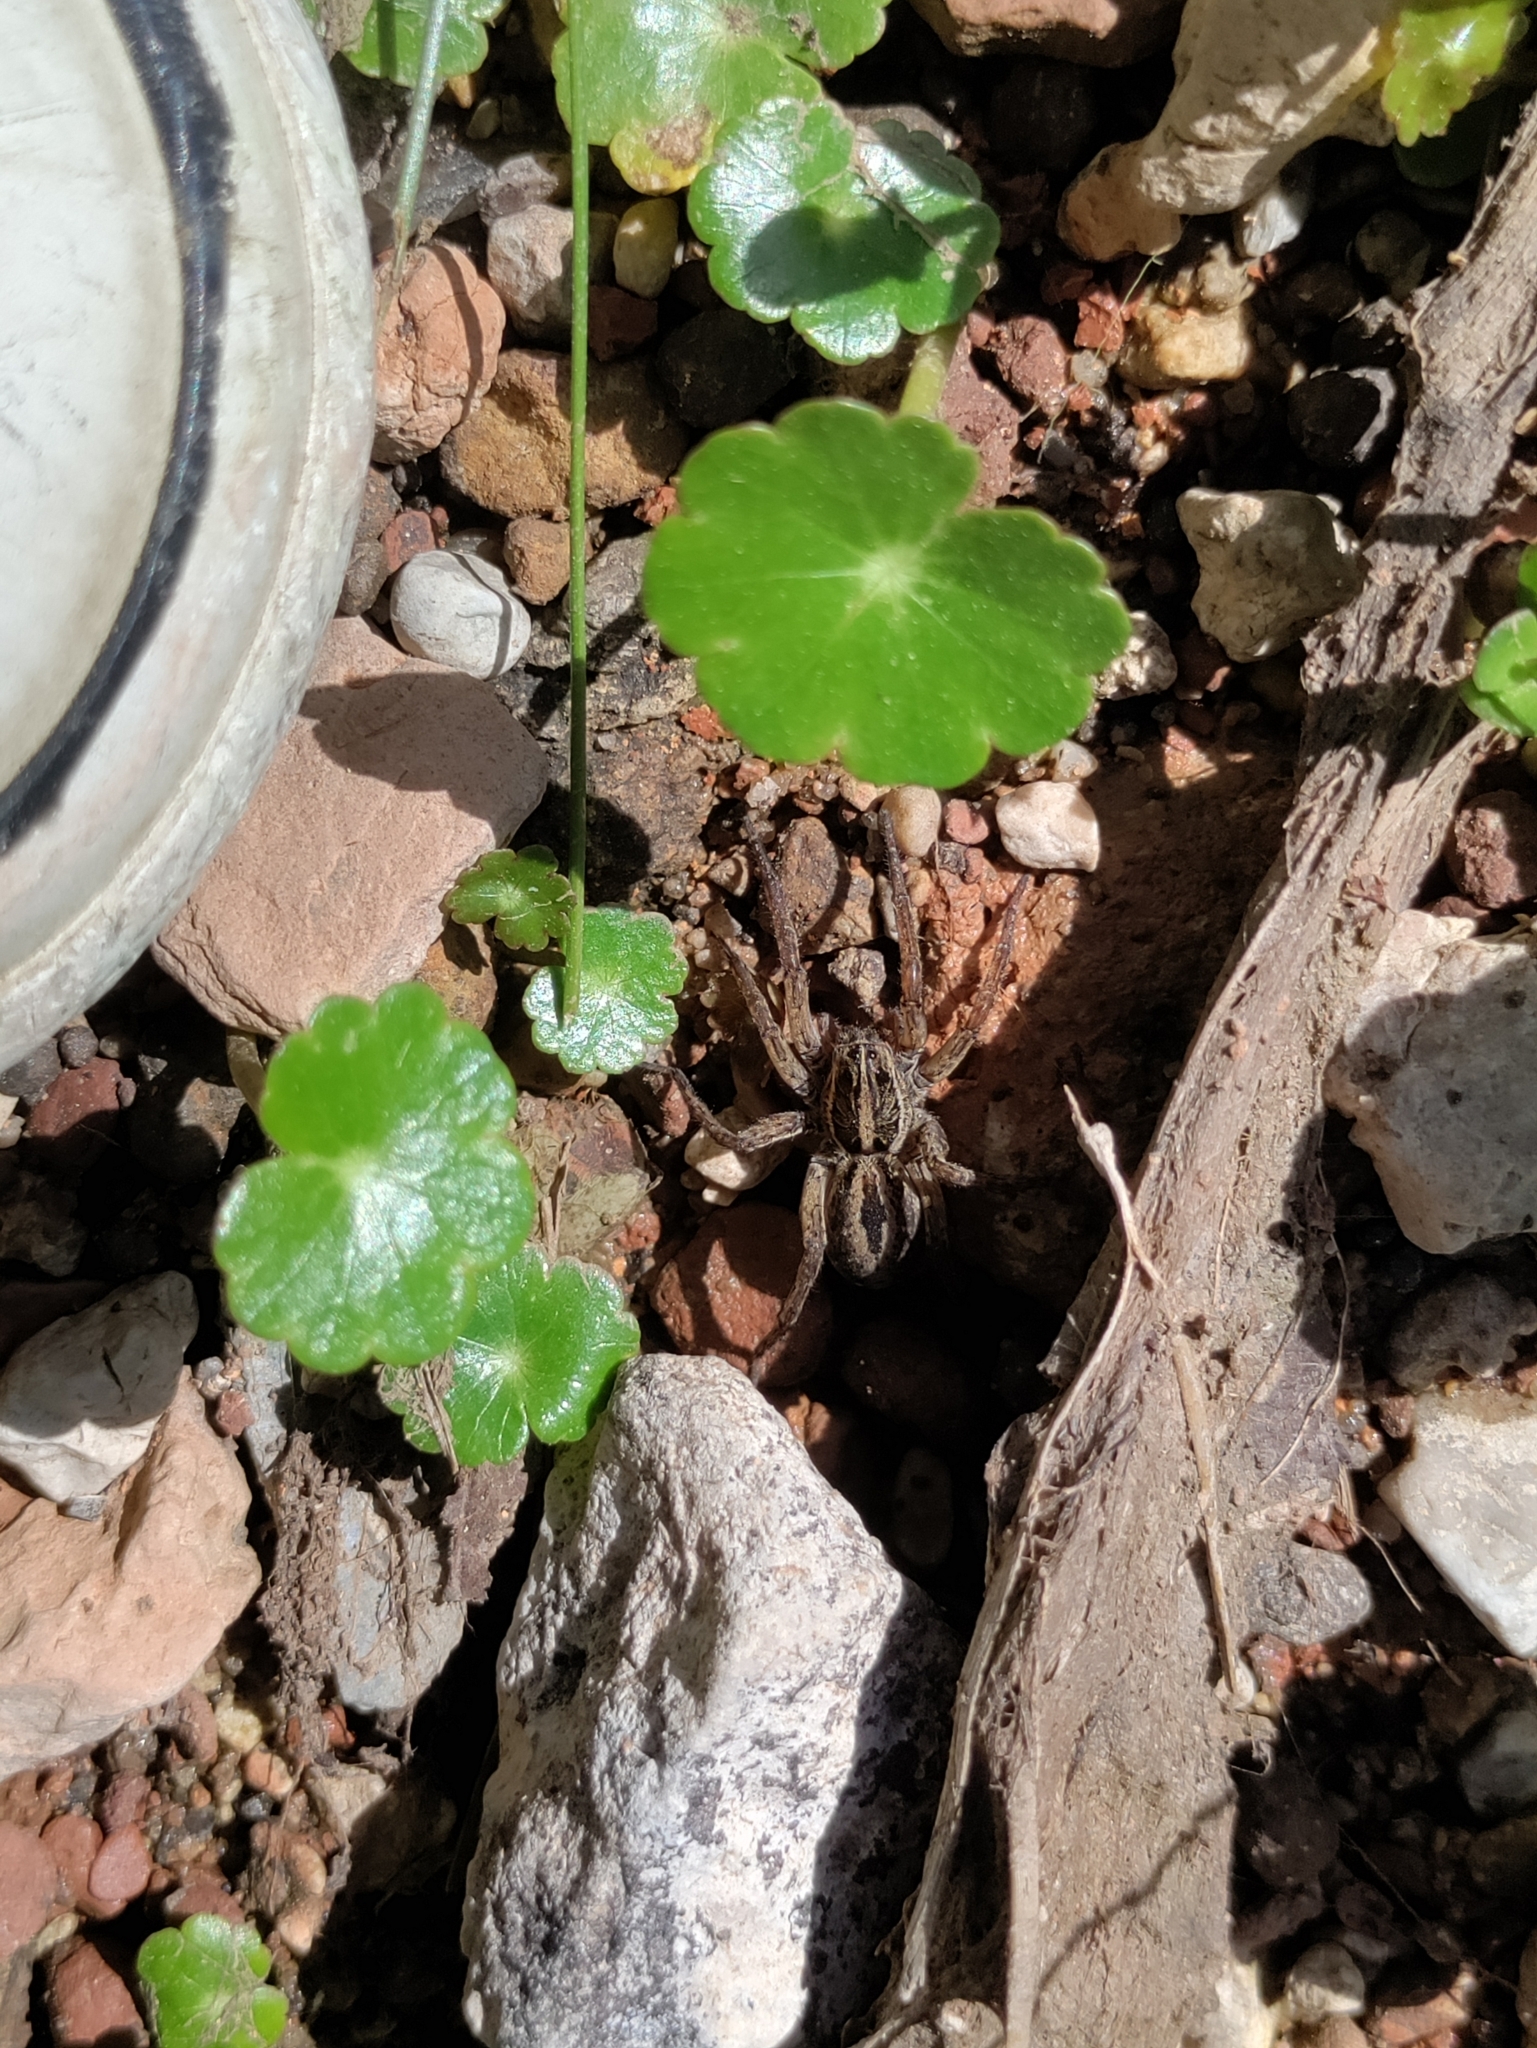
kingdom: Animalia
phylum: Arthropoda
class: Arachnida
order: Araneae
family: Lycosidae
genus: Tigrosa
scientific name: Tigrosa annexa
